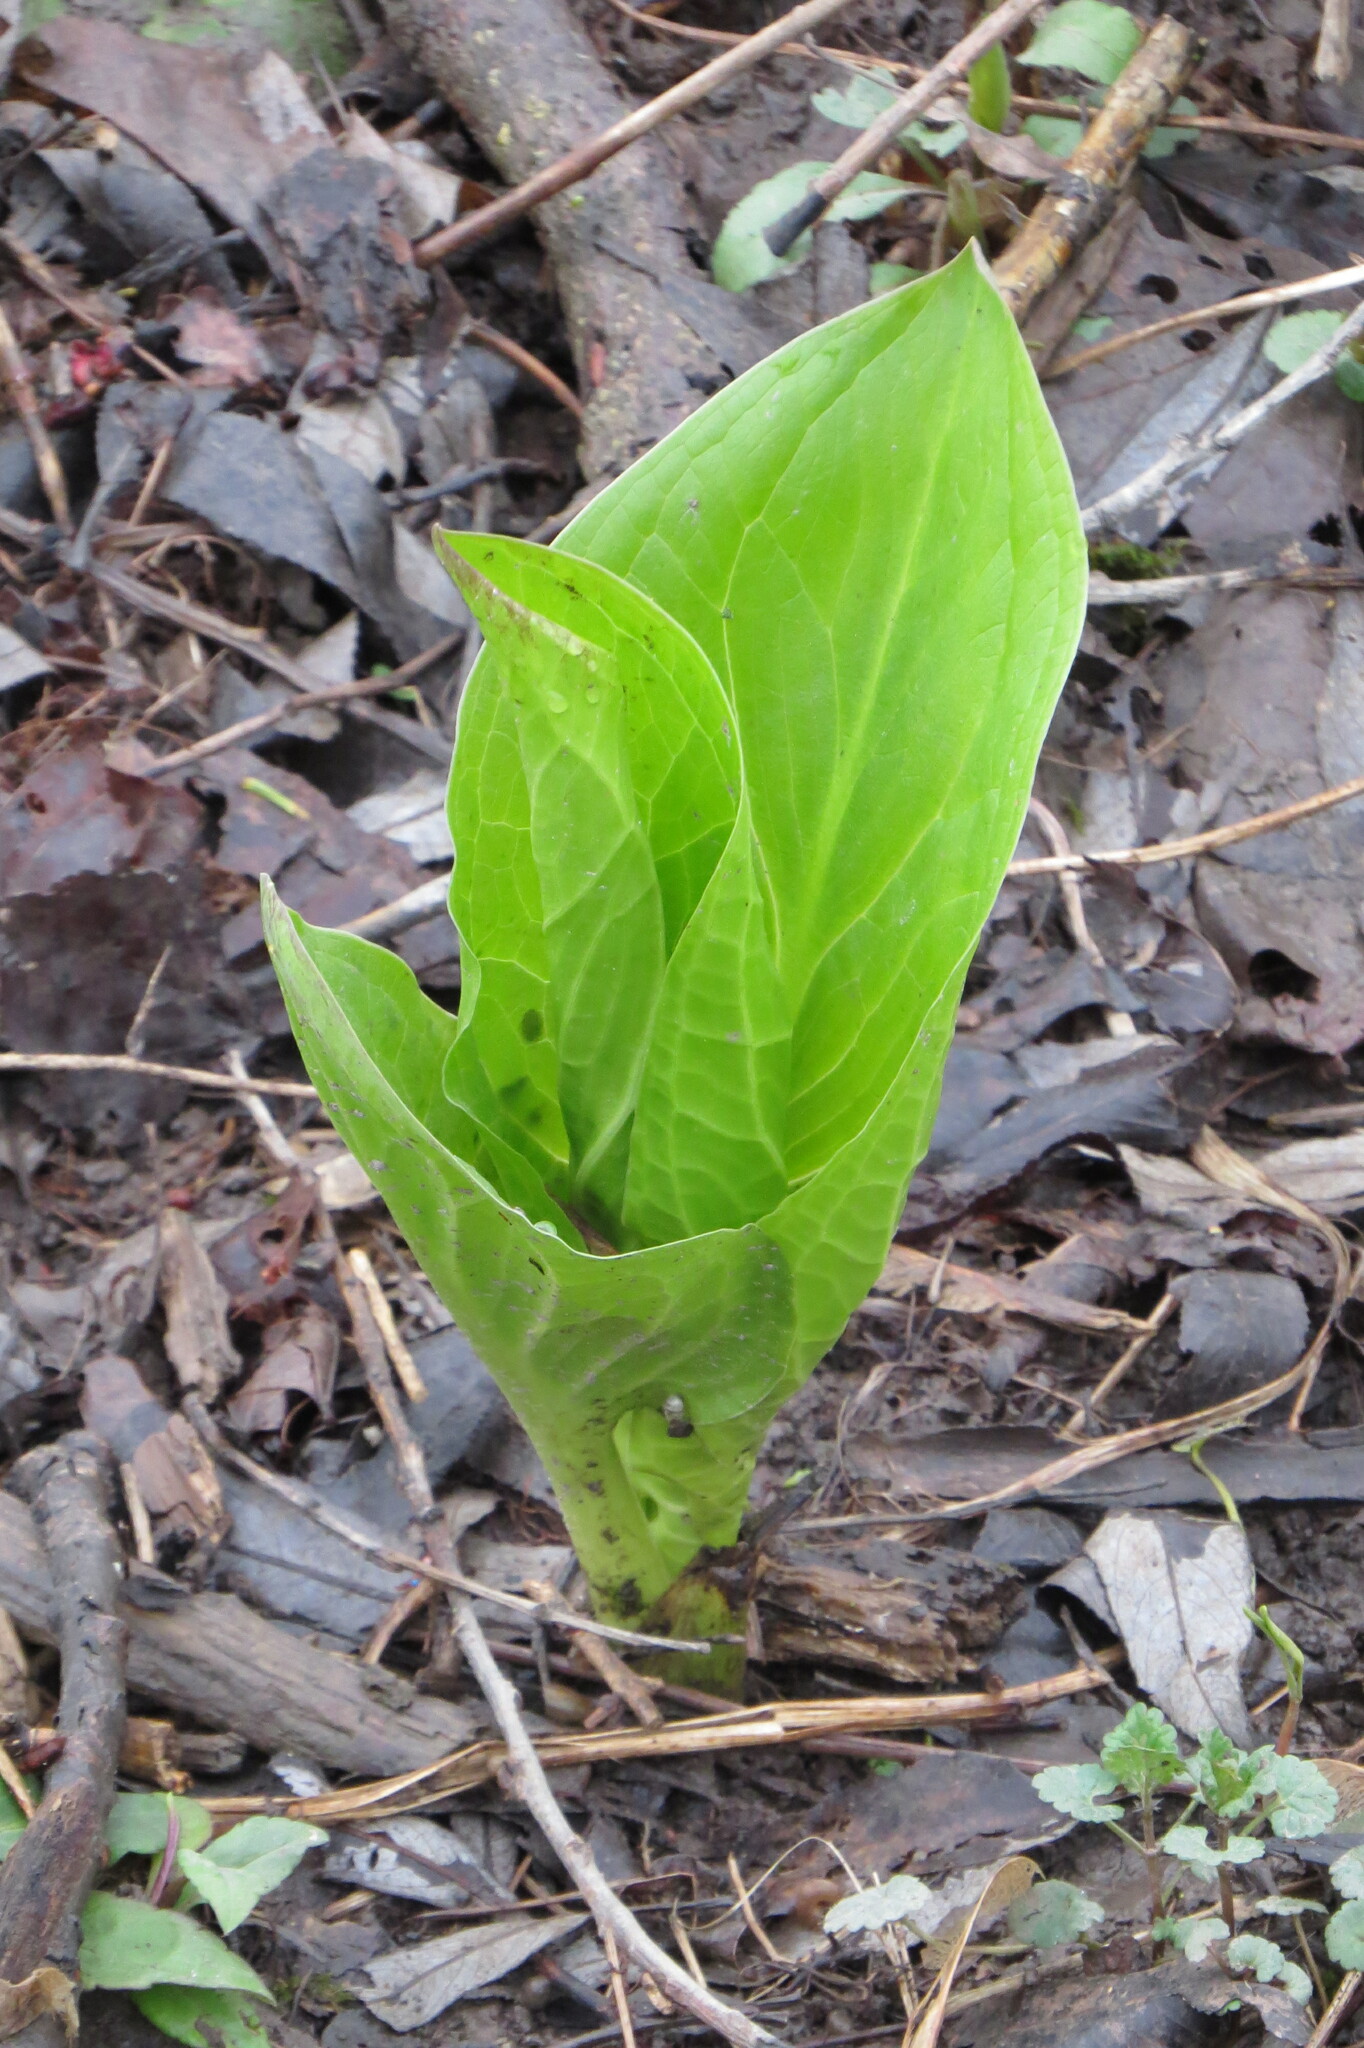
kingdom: Plantae
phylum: Tracheophyta
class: Liliopsida
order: Alismatales
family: Araceae
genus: Symplocarpus
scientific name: Symplocarpus foetidus
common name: Eastern skunk cabbage
